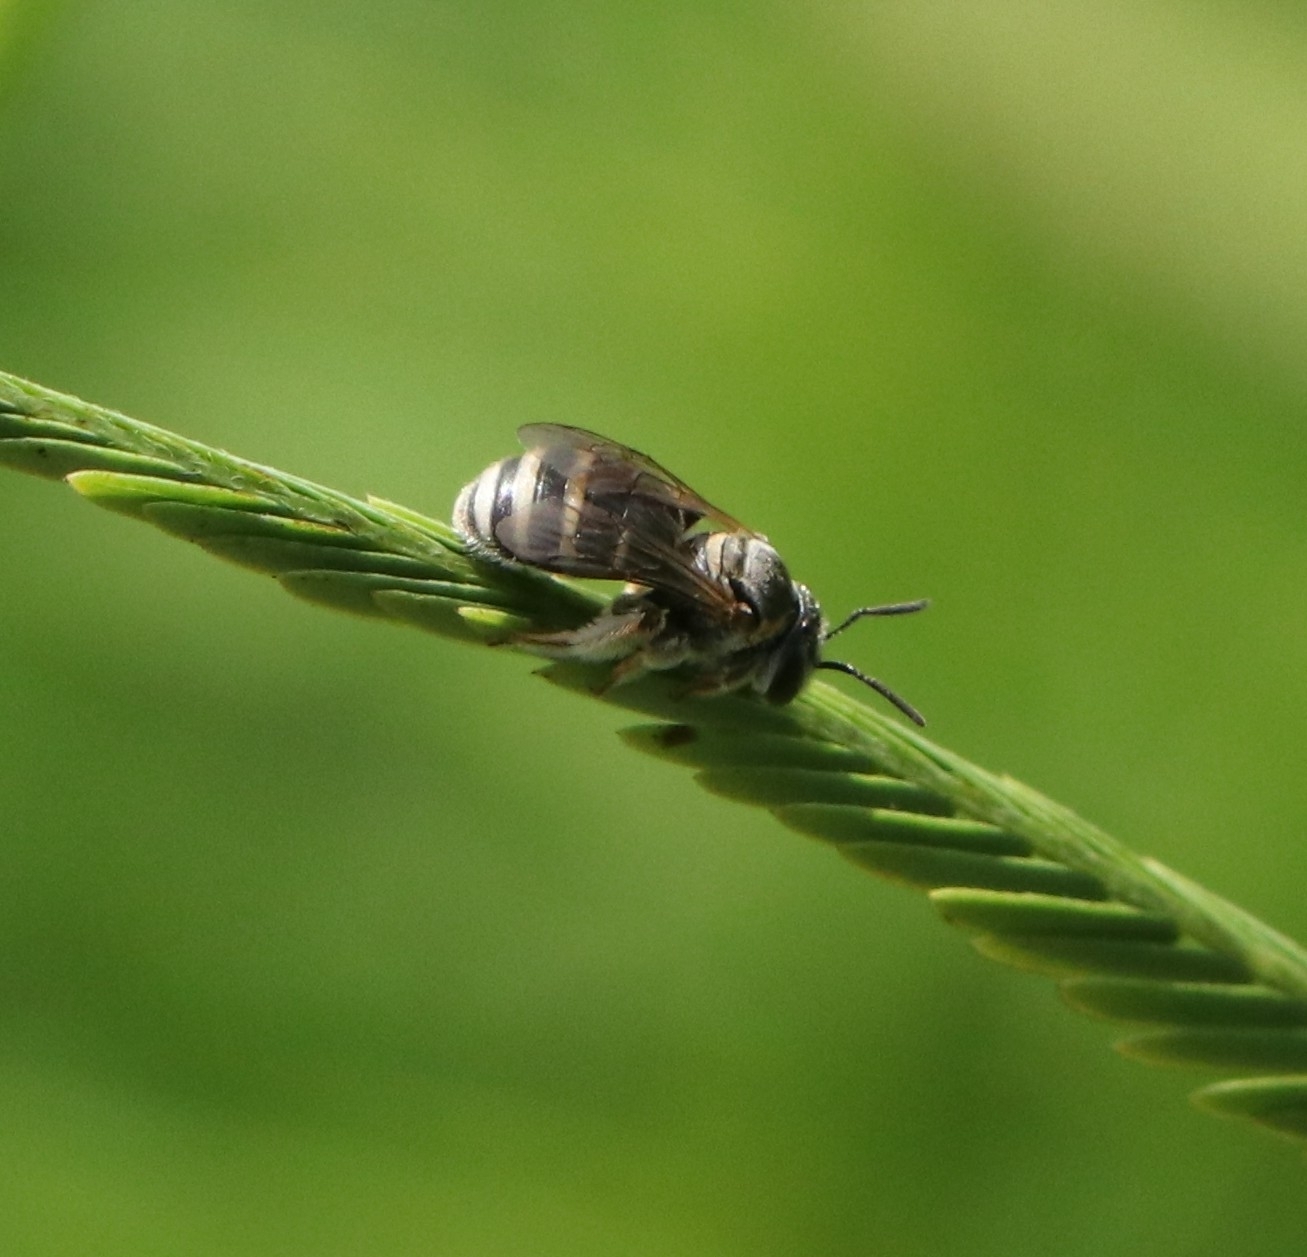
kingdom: Animalia
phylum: Arthropoda
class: Insecta
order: Hymenoptera
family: Halictidae
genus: Nomia
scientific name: Nomia
